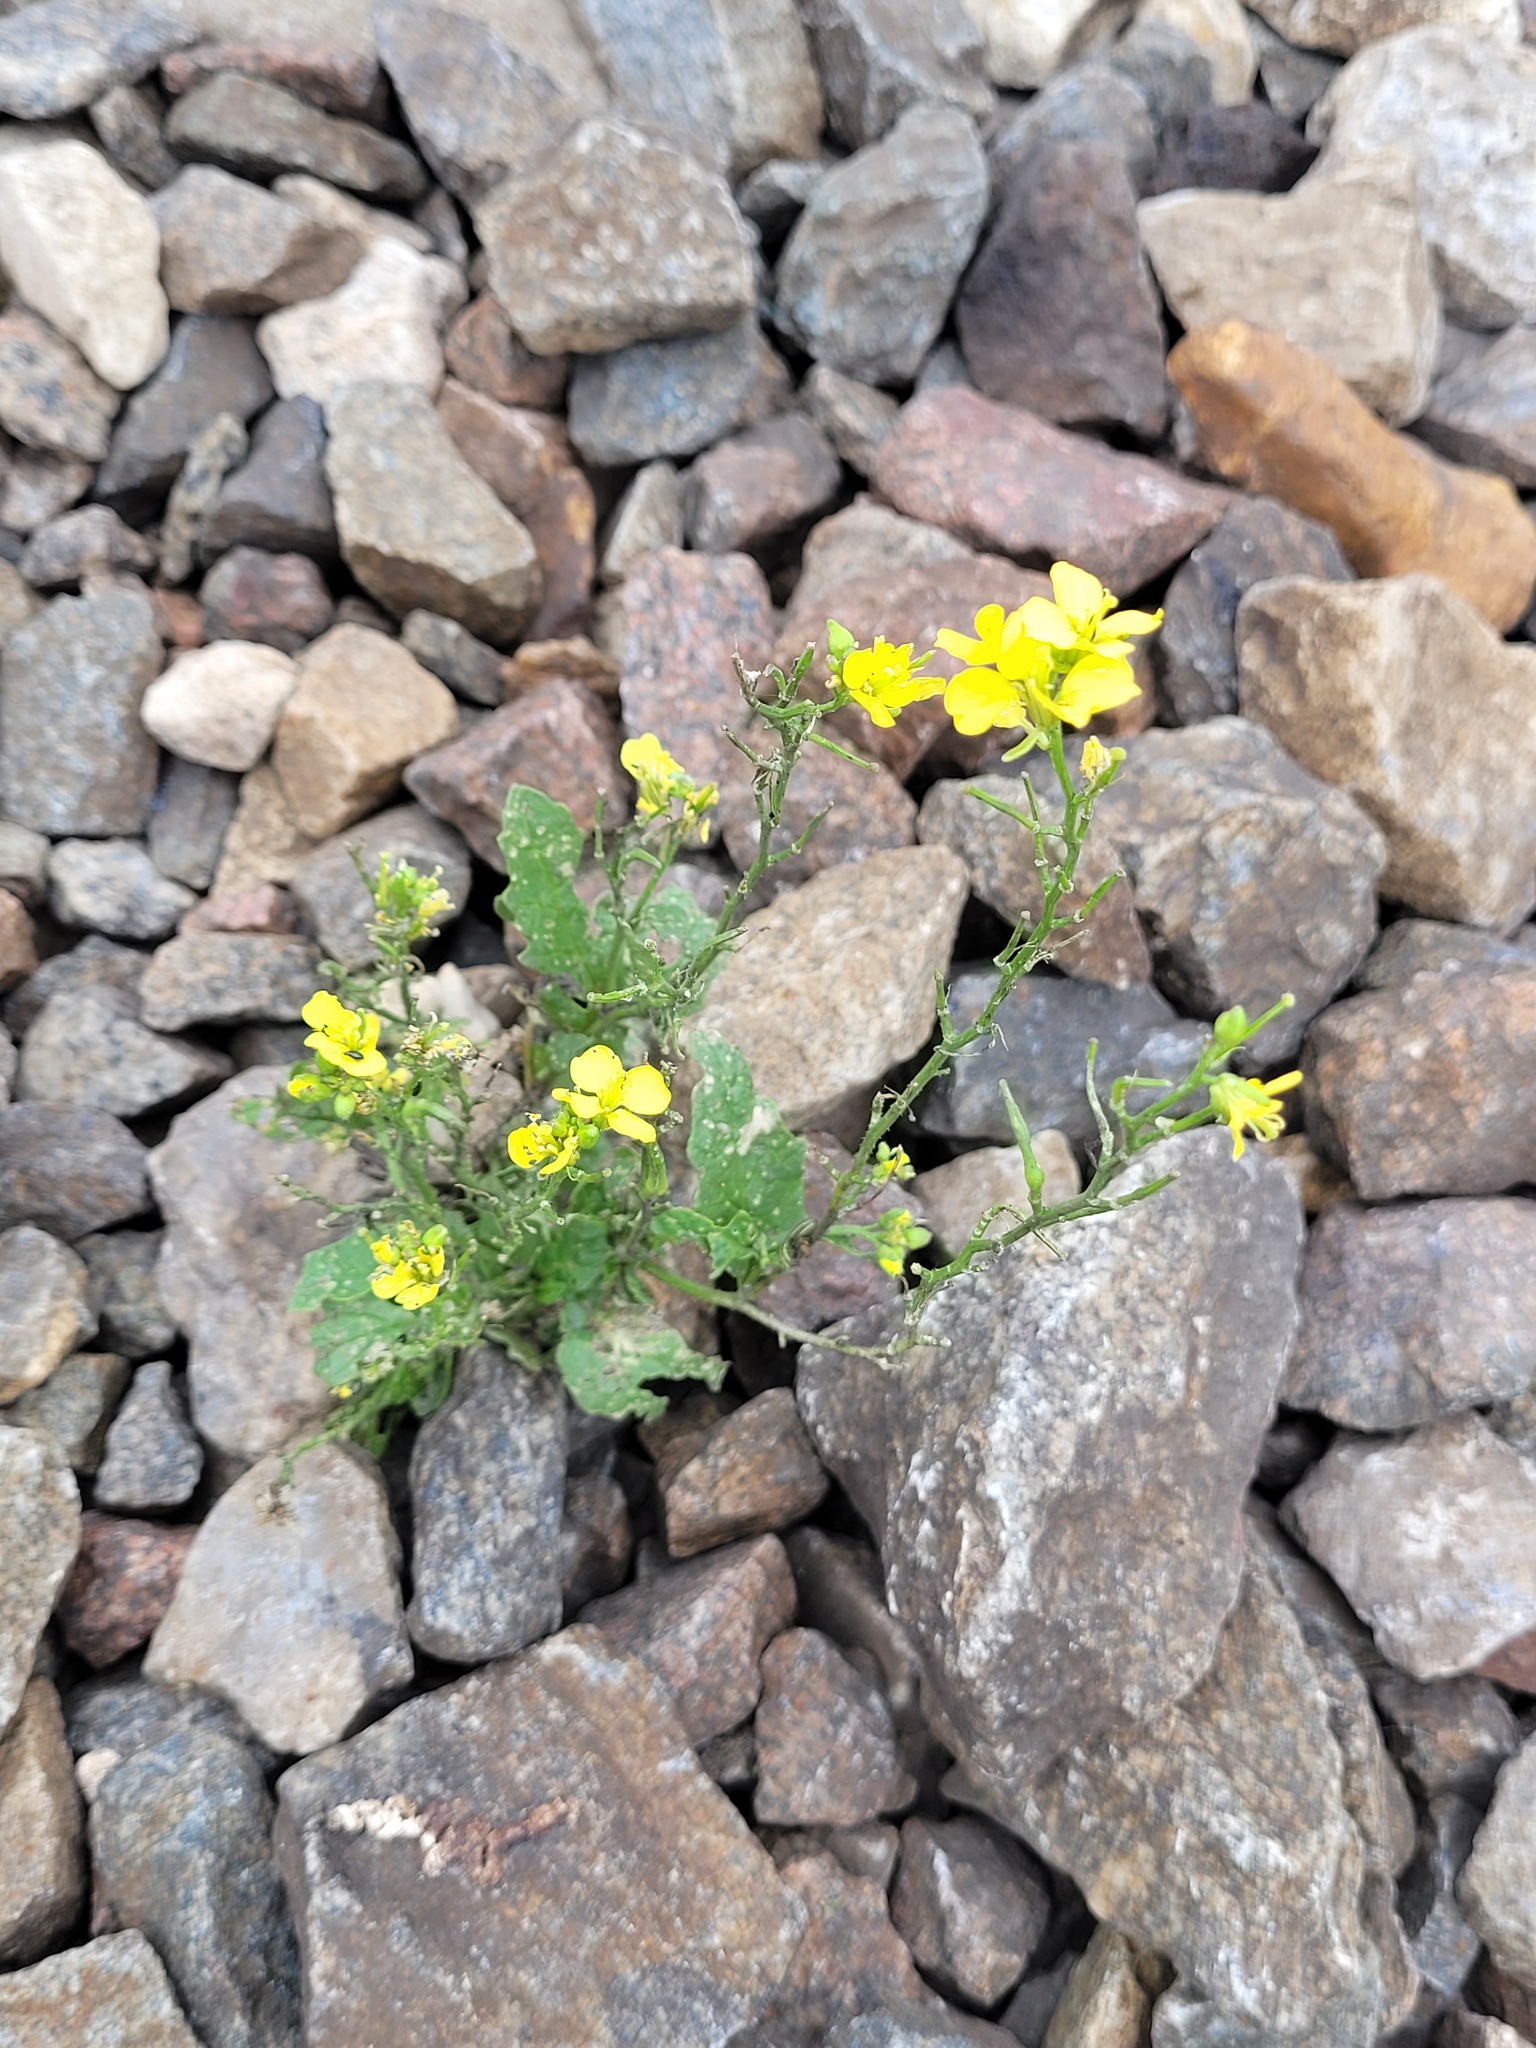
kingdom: Plantae
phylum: Tracheophyta
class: Magnoliopsida
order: Brassicales
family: Brassicaceae
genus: Sinapis
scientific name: Sinapis arvensis
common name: Charlock
